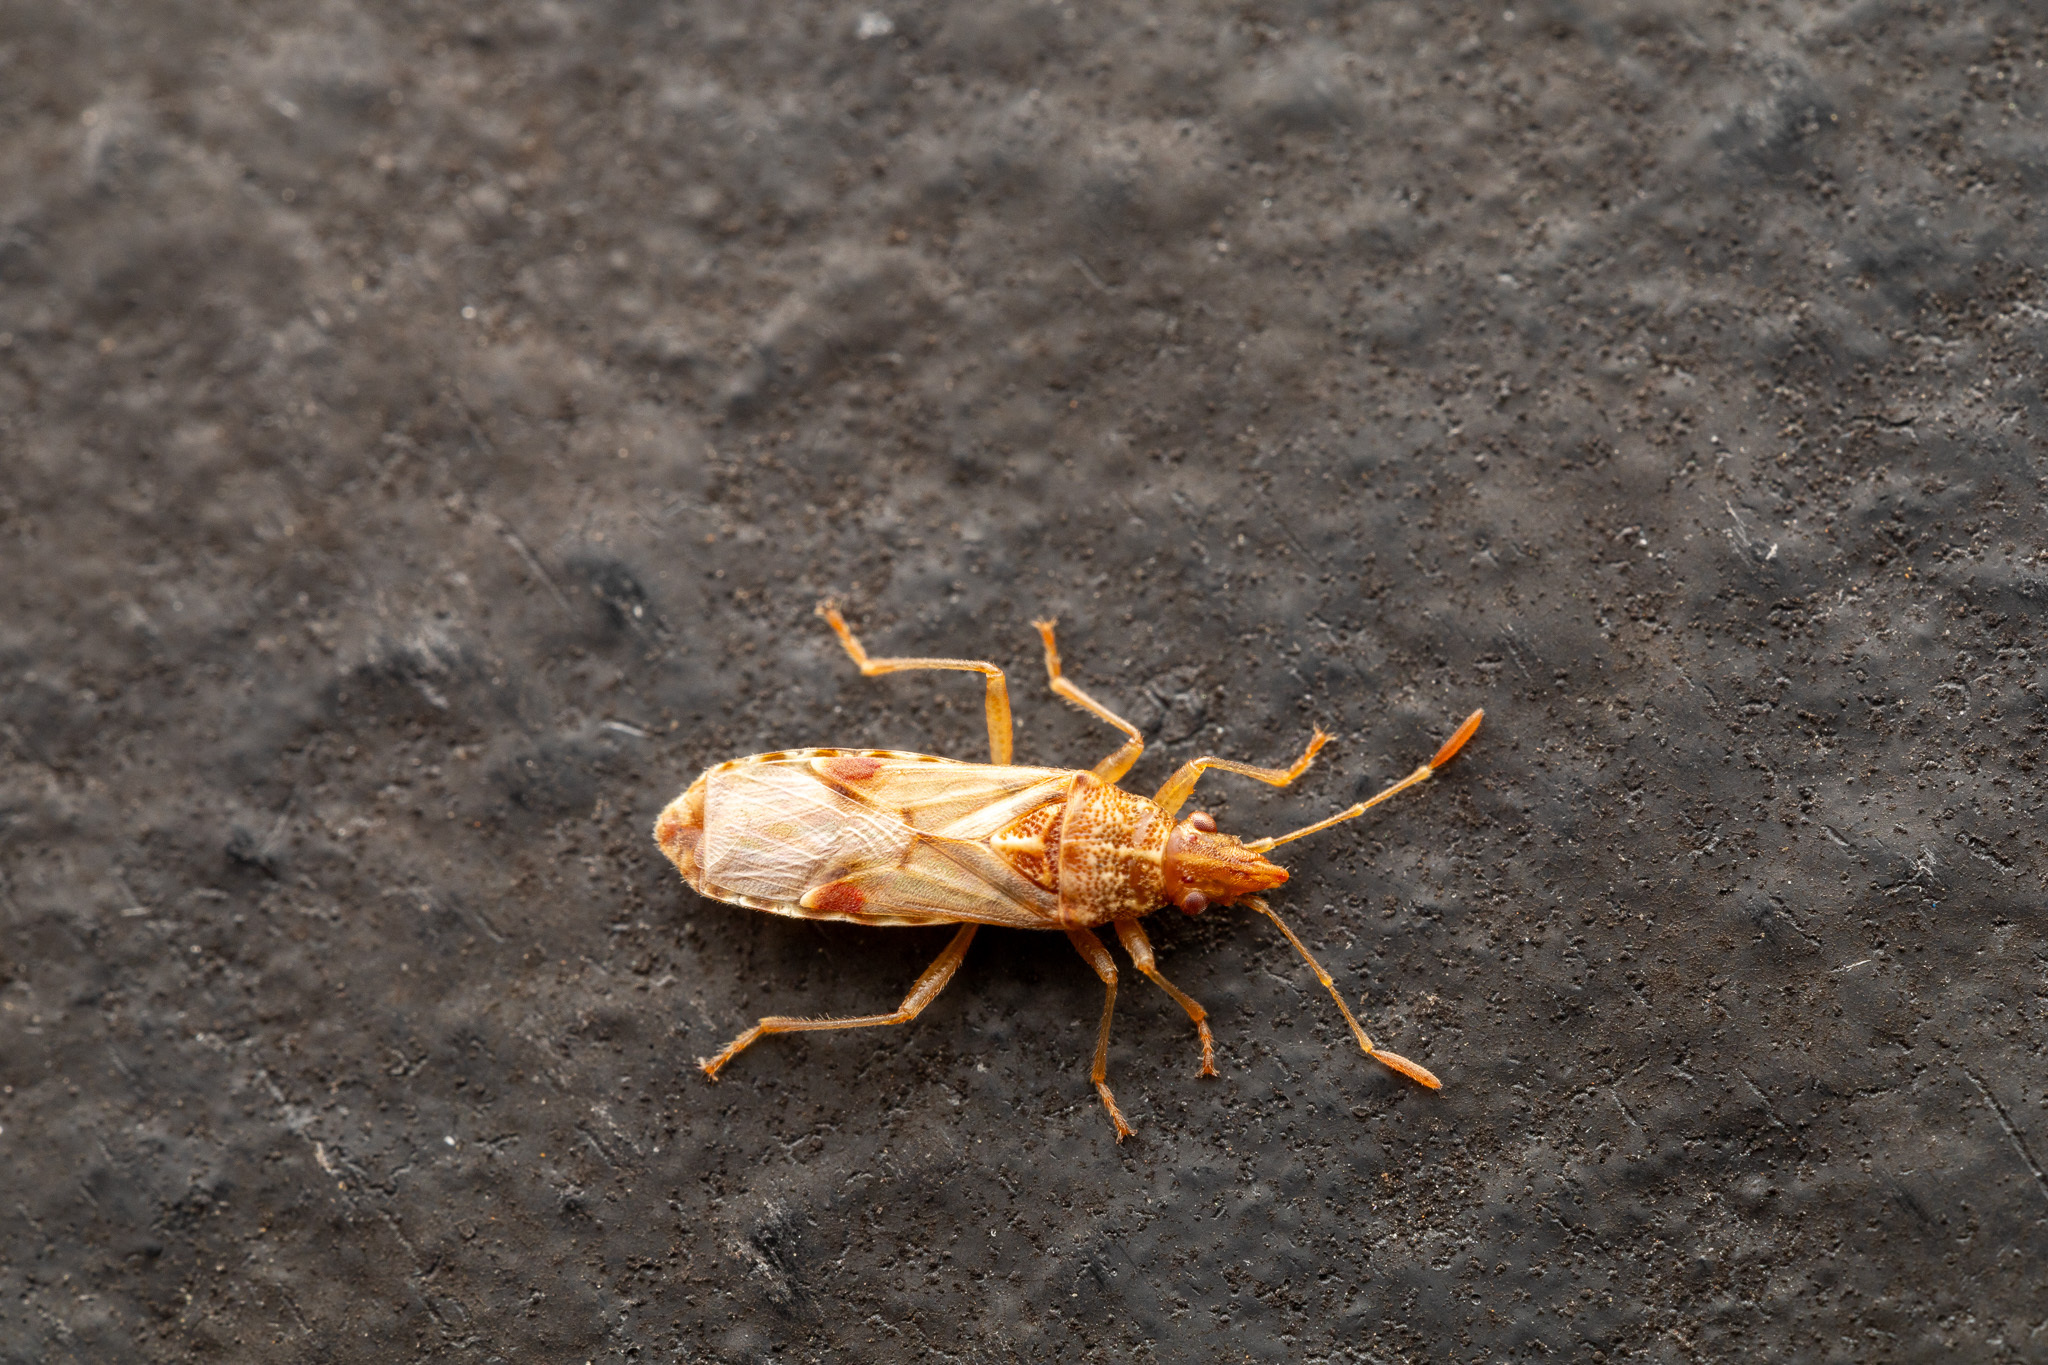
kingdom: Animalia
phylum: Arthropoda
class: Insecta
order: Hemiptera
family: Lygaeidae
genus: Belonochilus
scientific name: Belonochilus numenius
